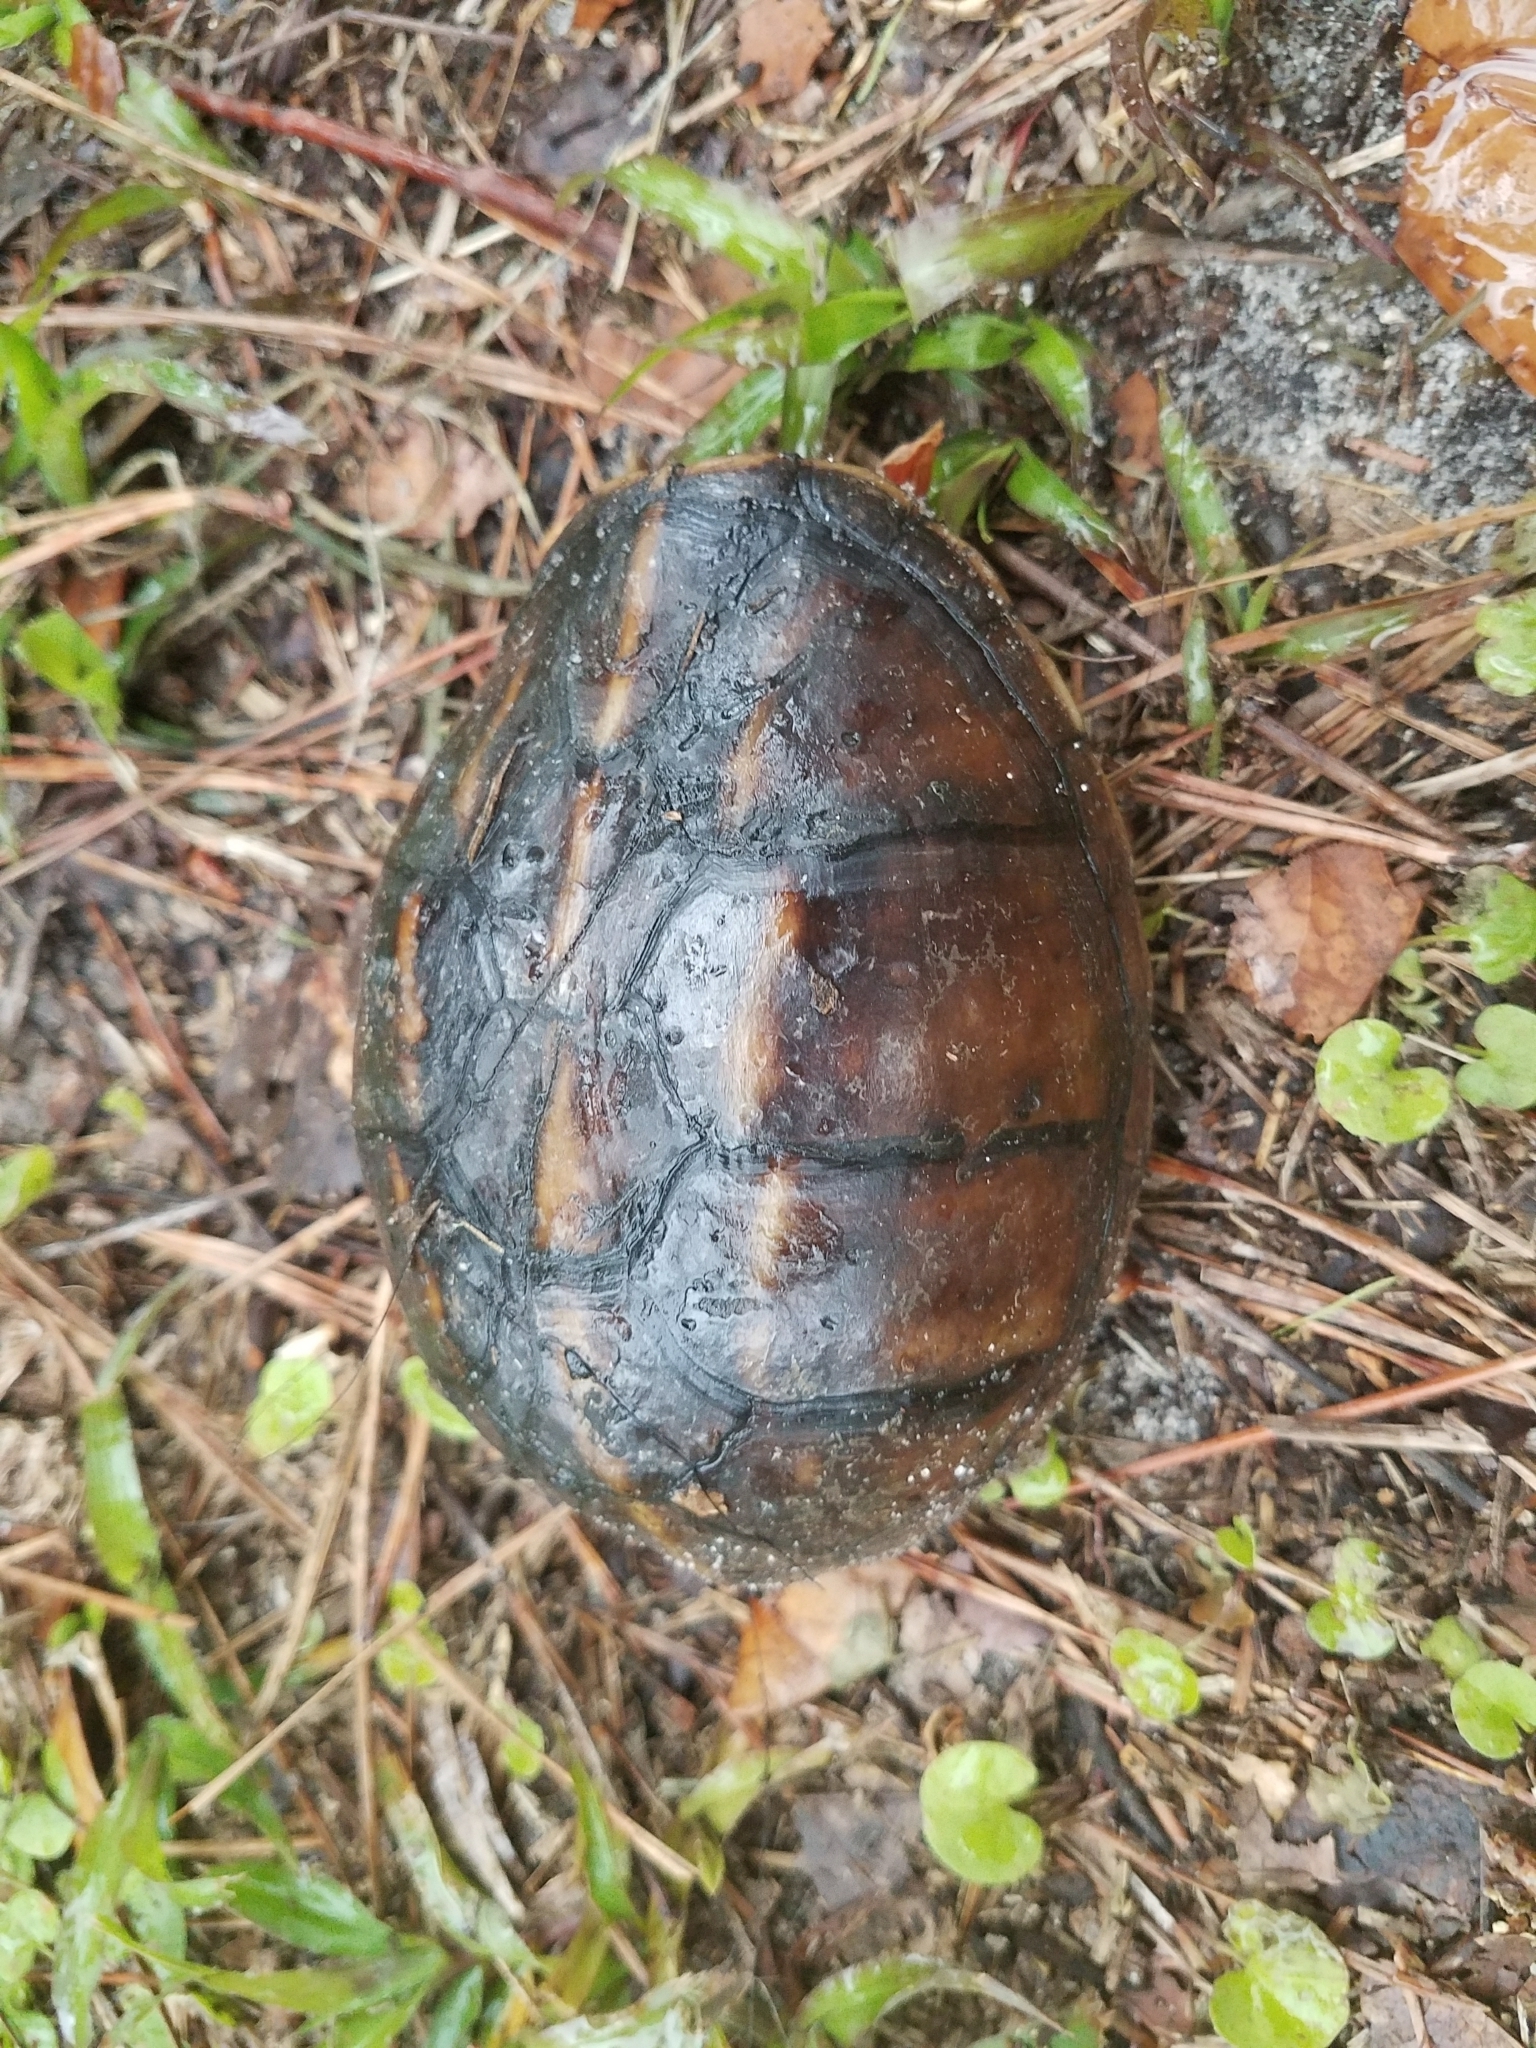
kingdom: Animalia
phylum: Chordata
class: Testudines
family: Kinosternidae
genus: Kinosternon
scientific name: Kinosternon baurii
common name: Striped mud turtle
